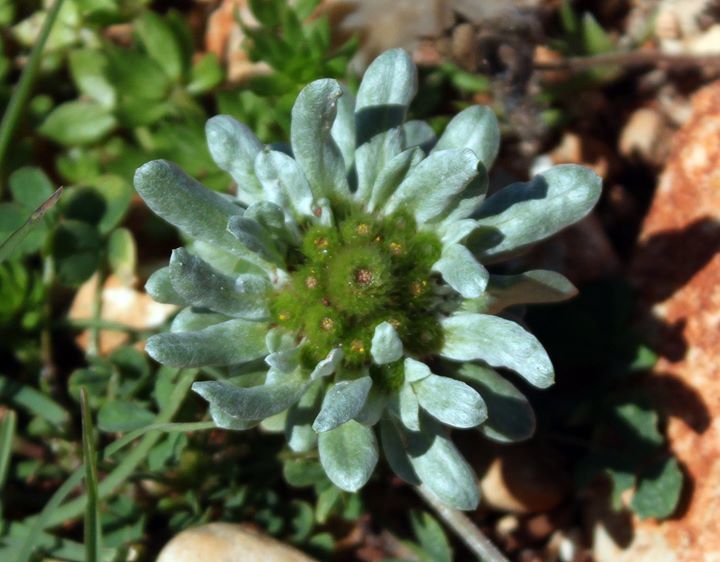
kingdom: Plantae
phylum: Tracheophyta
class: Magnoliopsida
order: Asterales
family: Asteraceae
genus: Filago
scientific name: Filago pygmaea
